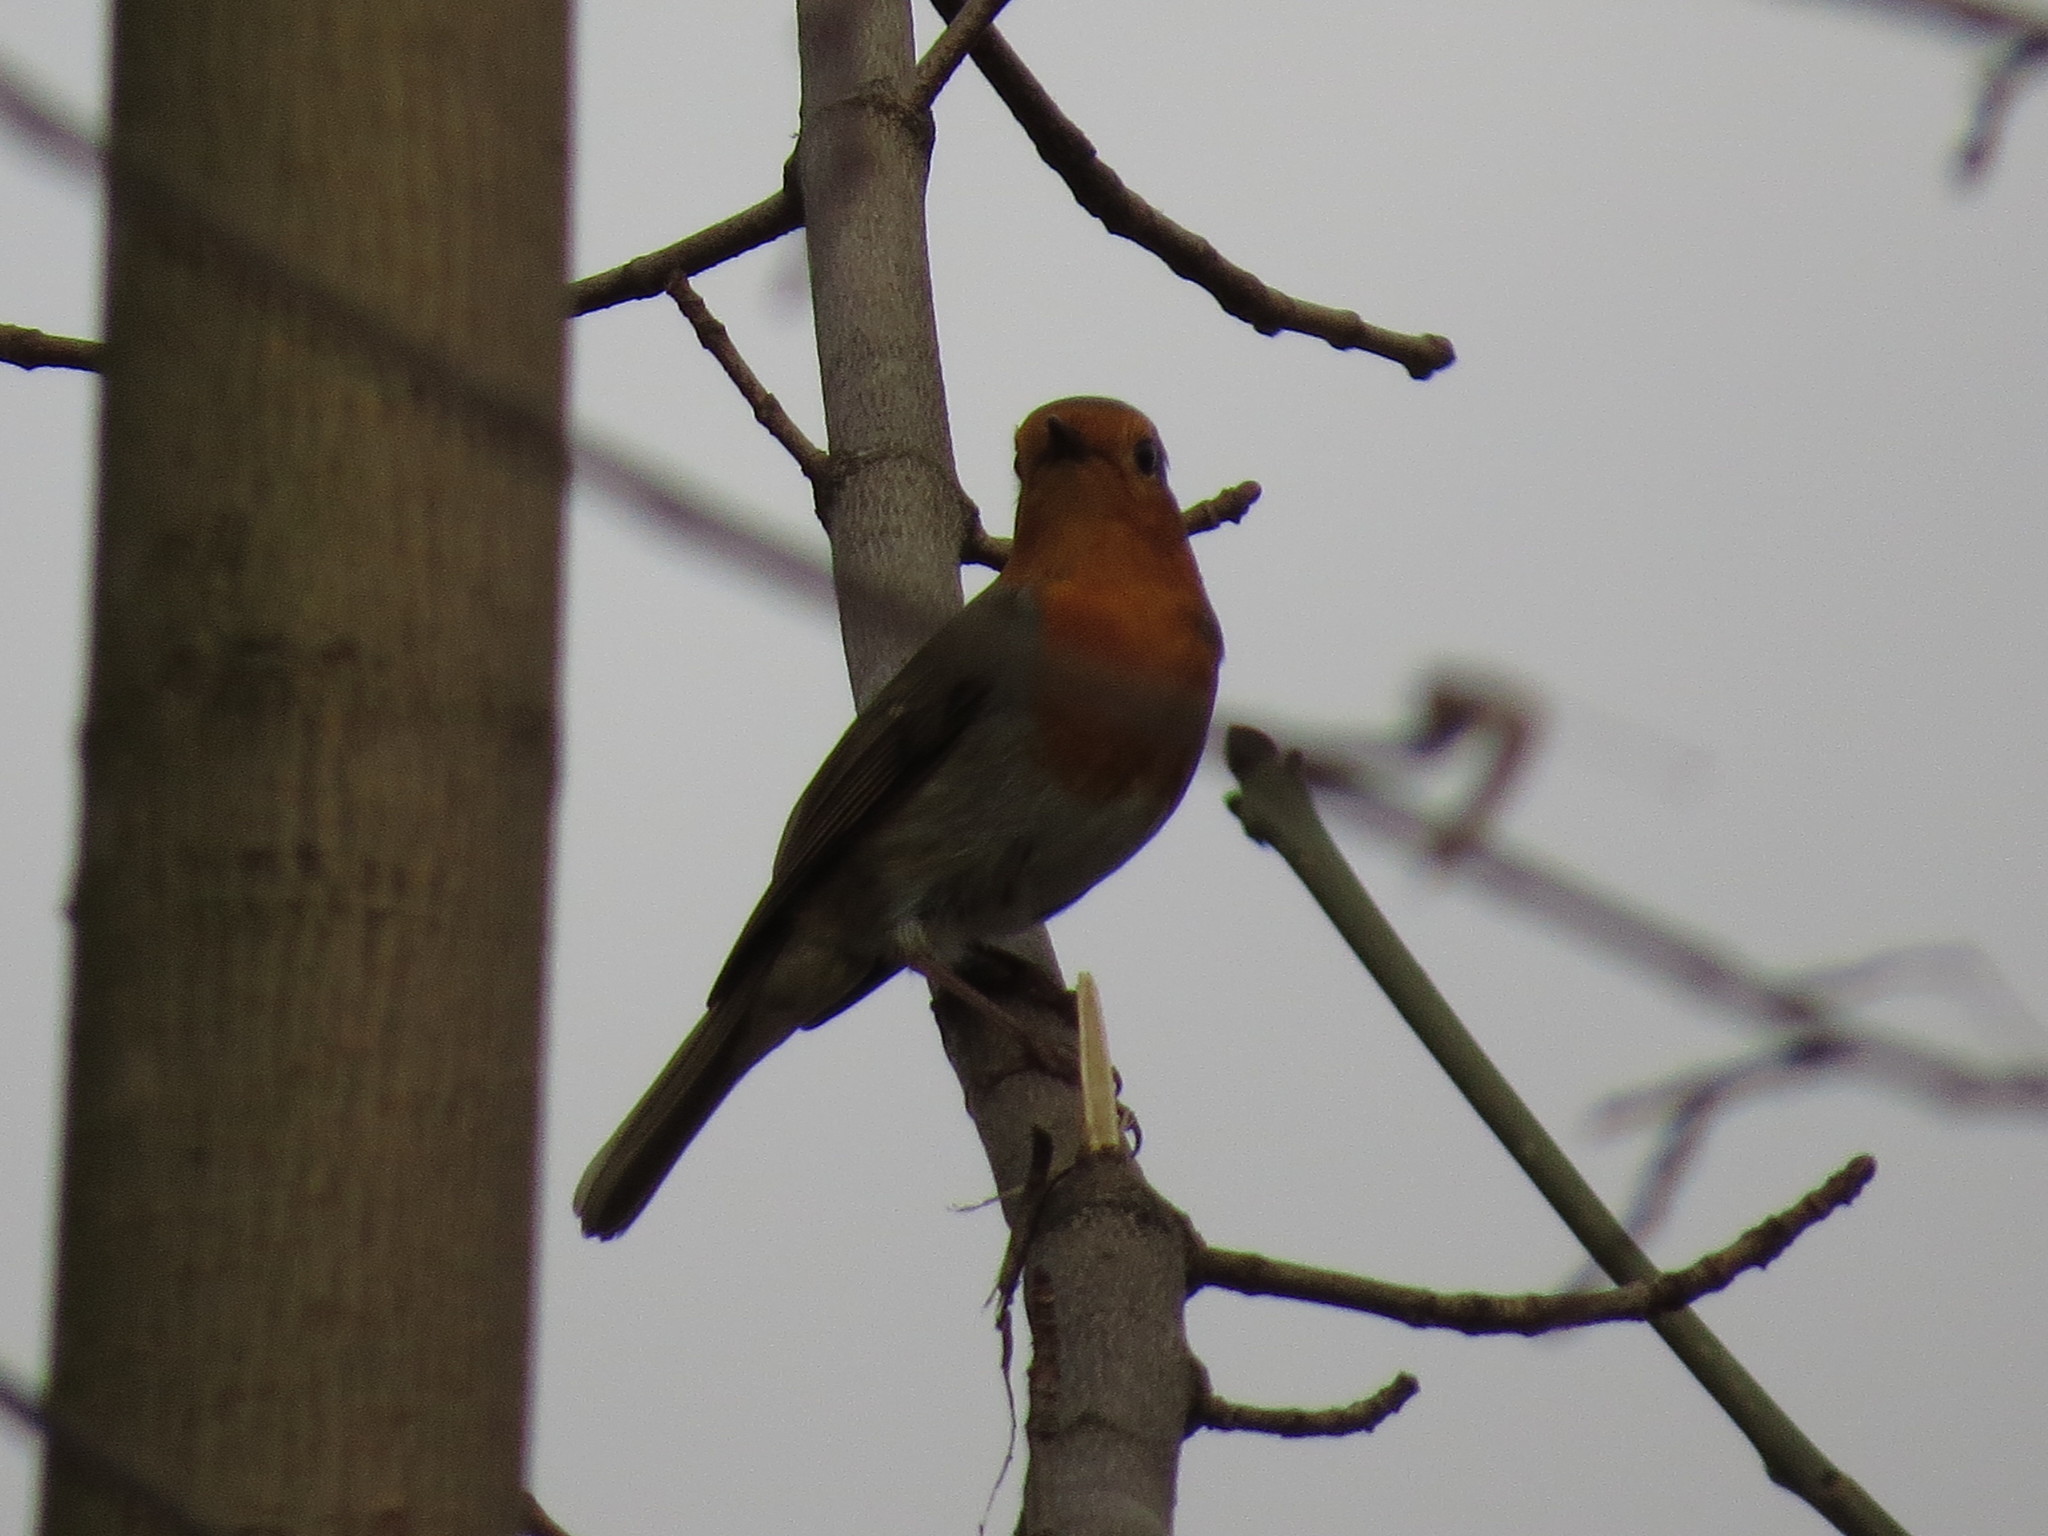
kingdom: Animalia
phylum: Chordata
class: Aves
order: Passeriformes
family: Muscicapidae
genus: Erithacus
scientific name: Erithacus rubecula
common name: European robin
